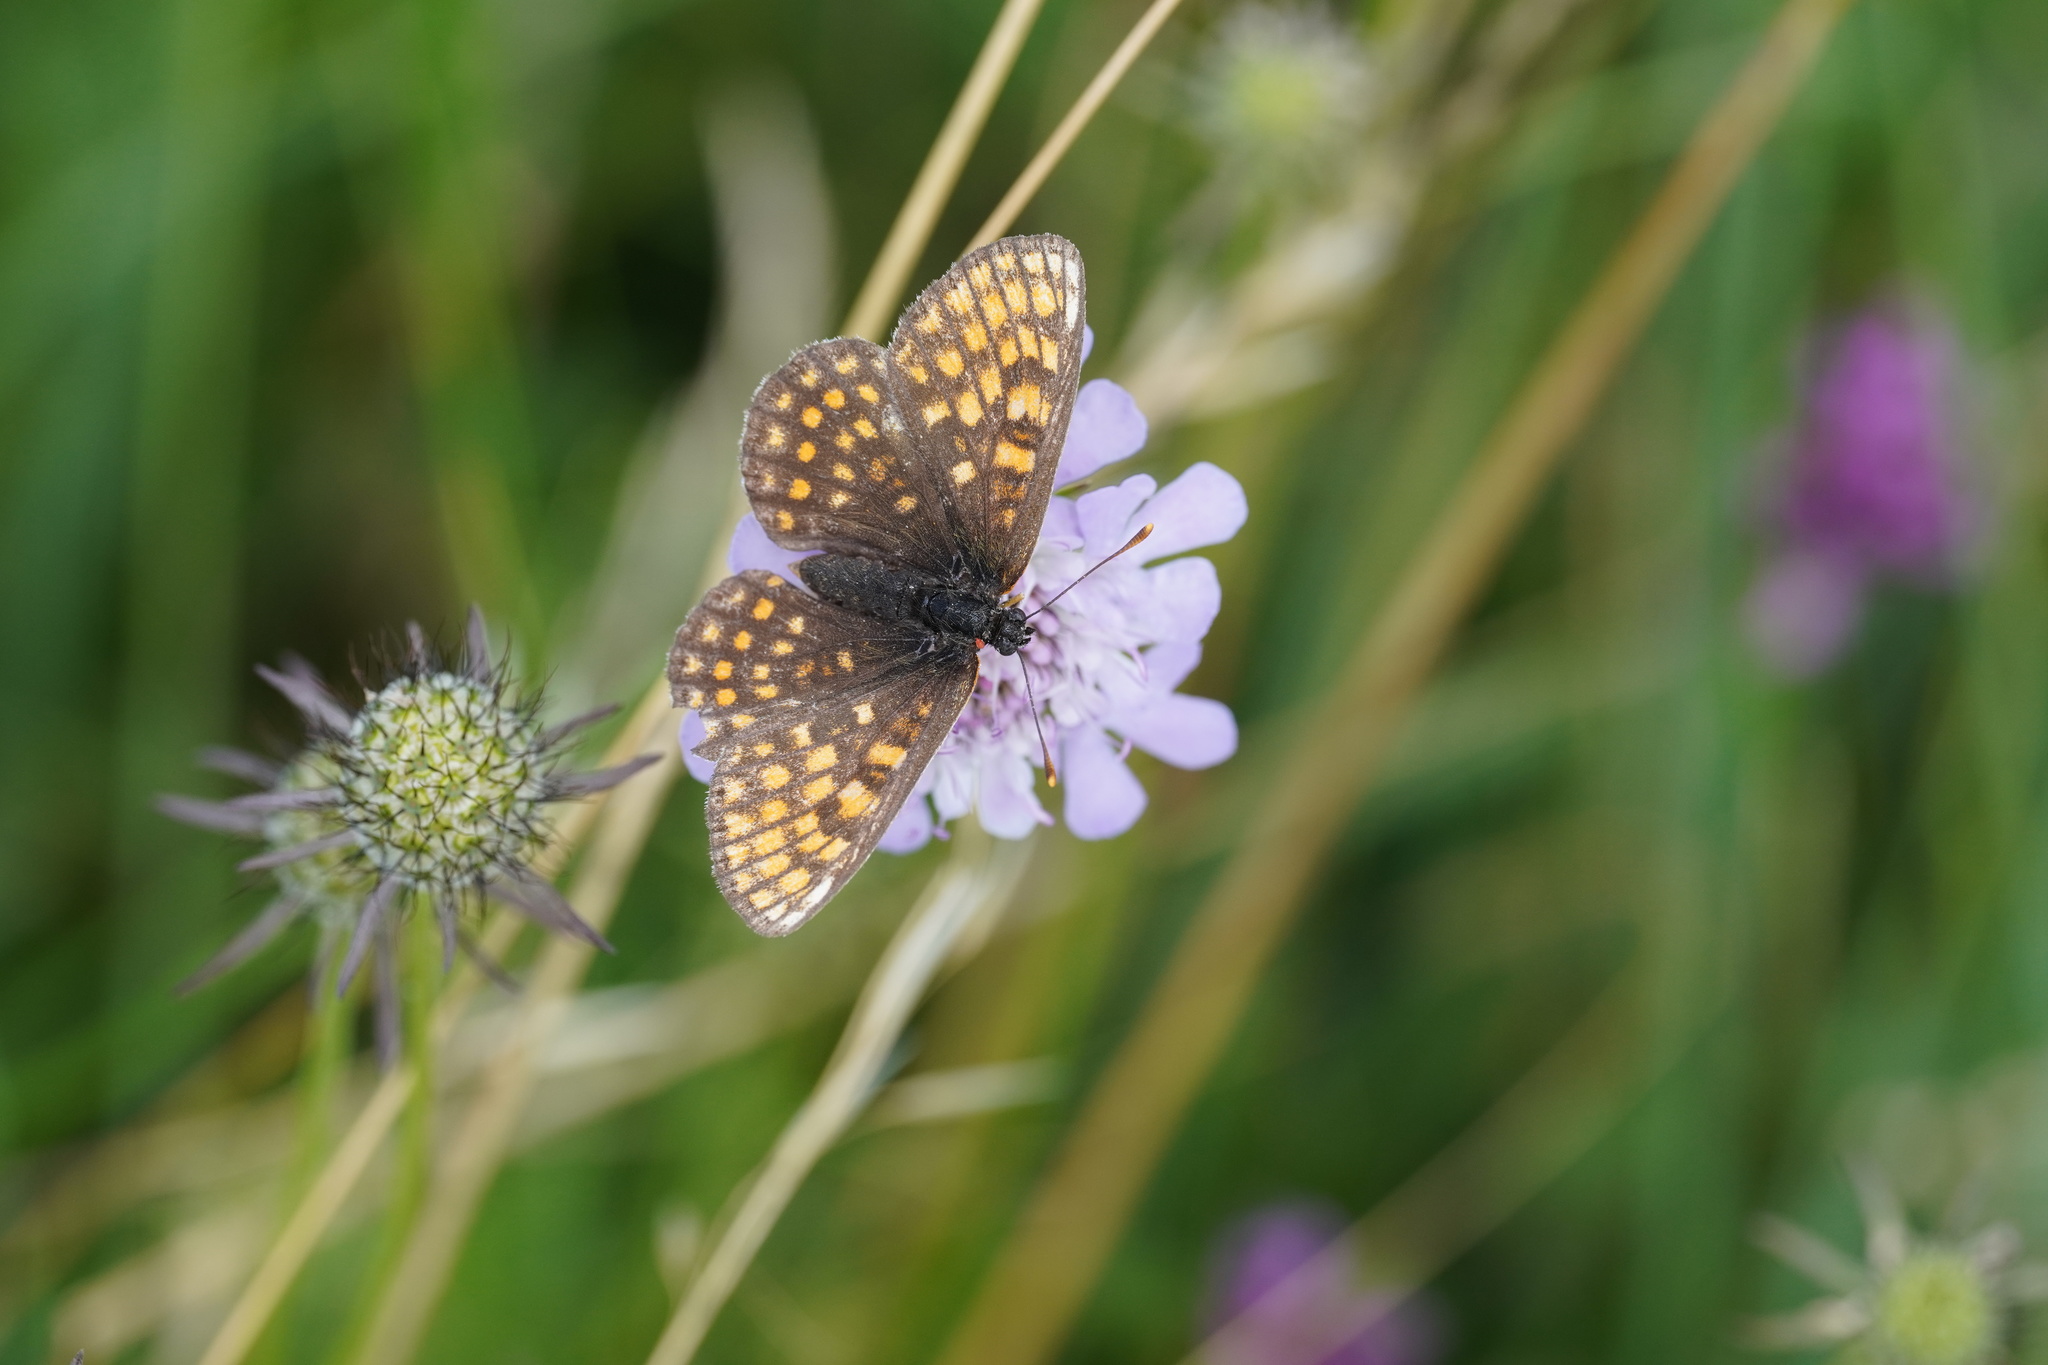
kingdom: Animalia
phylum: Arthropoda
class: Insecta
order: Lepidoptera
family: Nymphalidae
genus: Melitaea
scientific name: Melitaea athalia
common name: Heath fritillary
